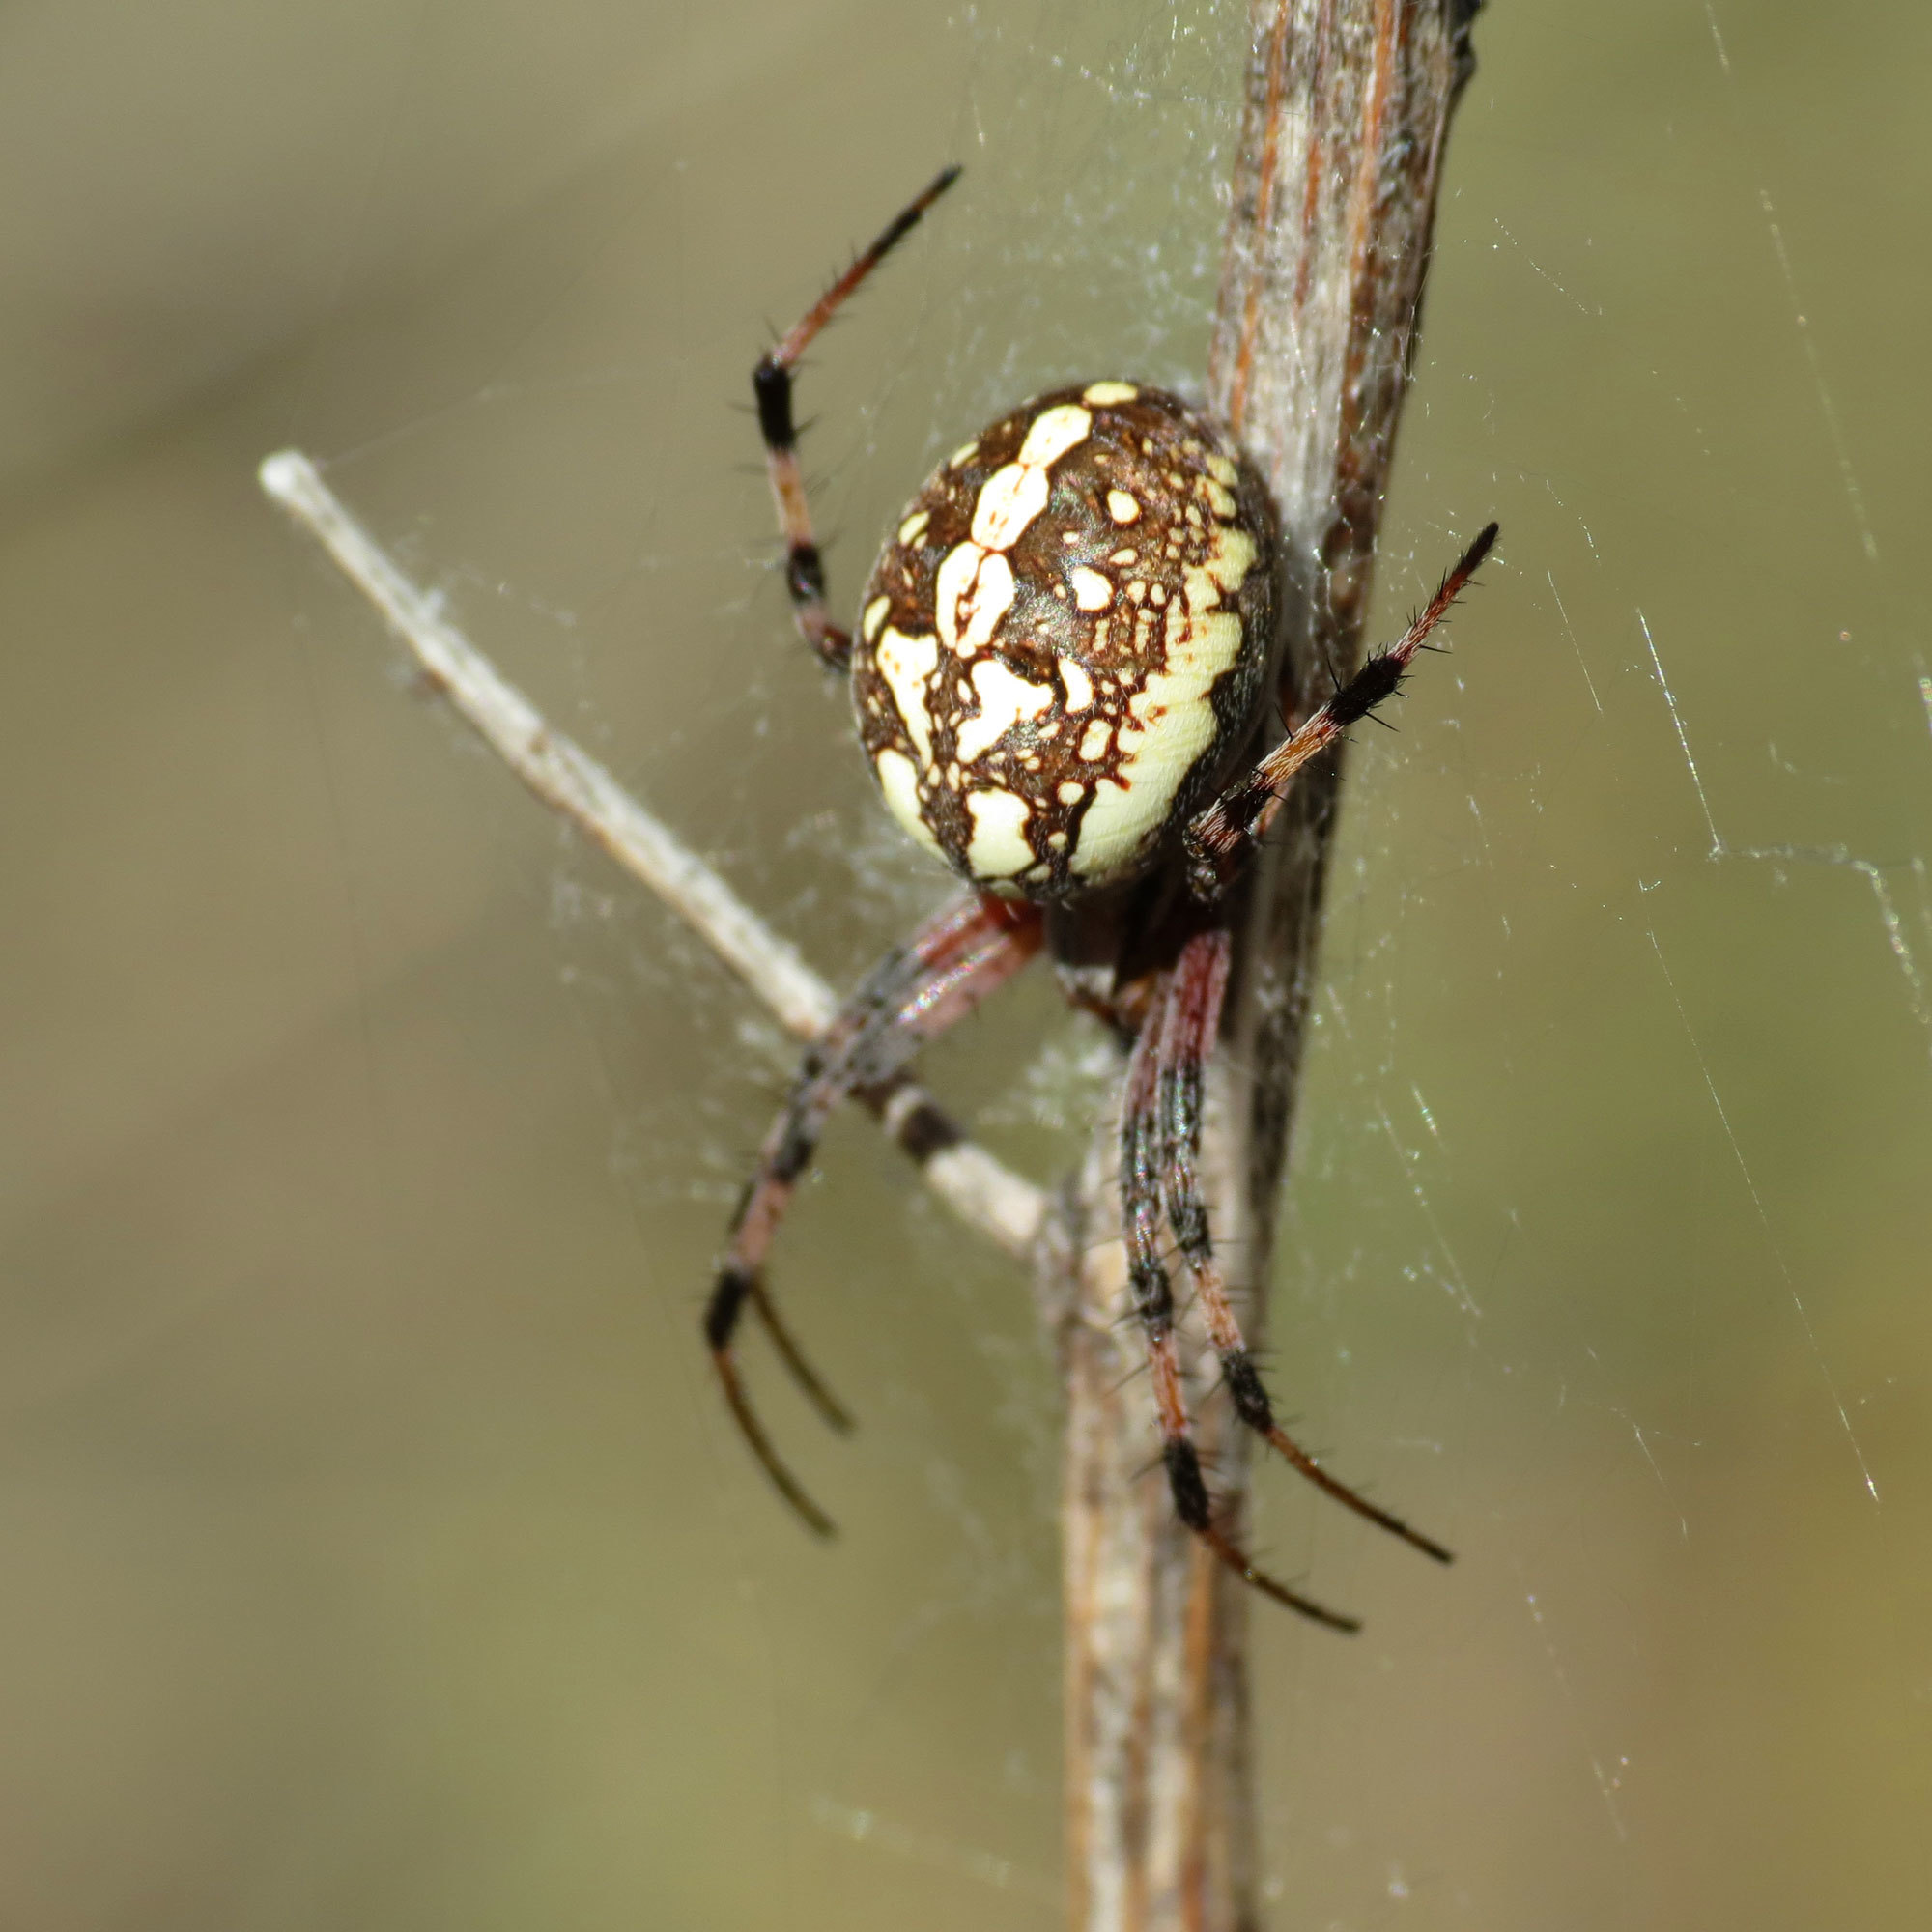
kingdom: Animalia
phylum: Arthropoda
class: Arachnida
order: Araneae
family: Araneidae
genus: Neoscona
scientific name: Neoscona oaxacensis
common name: Orb weavers
